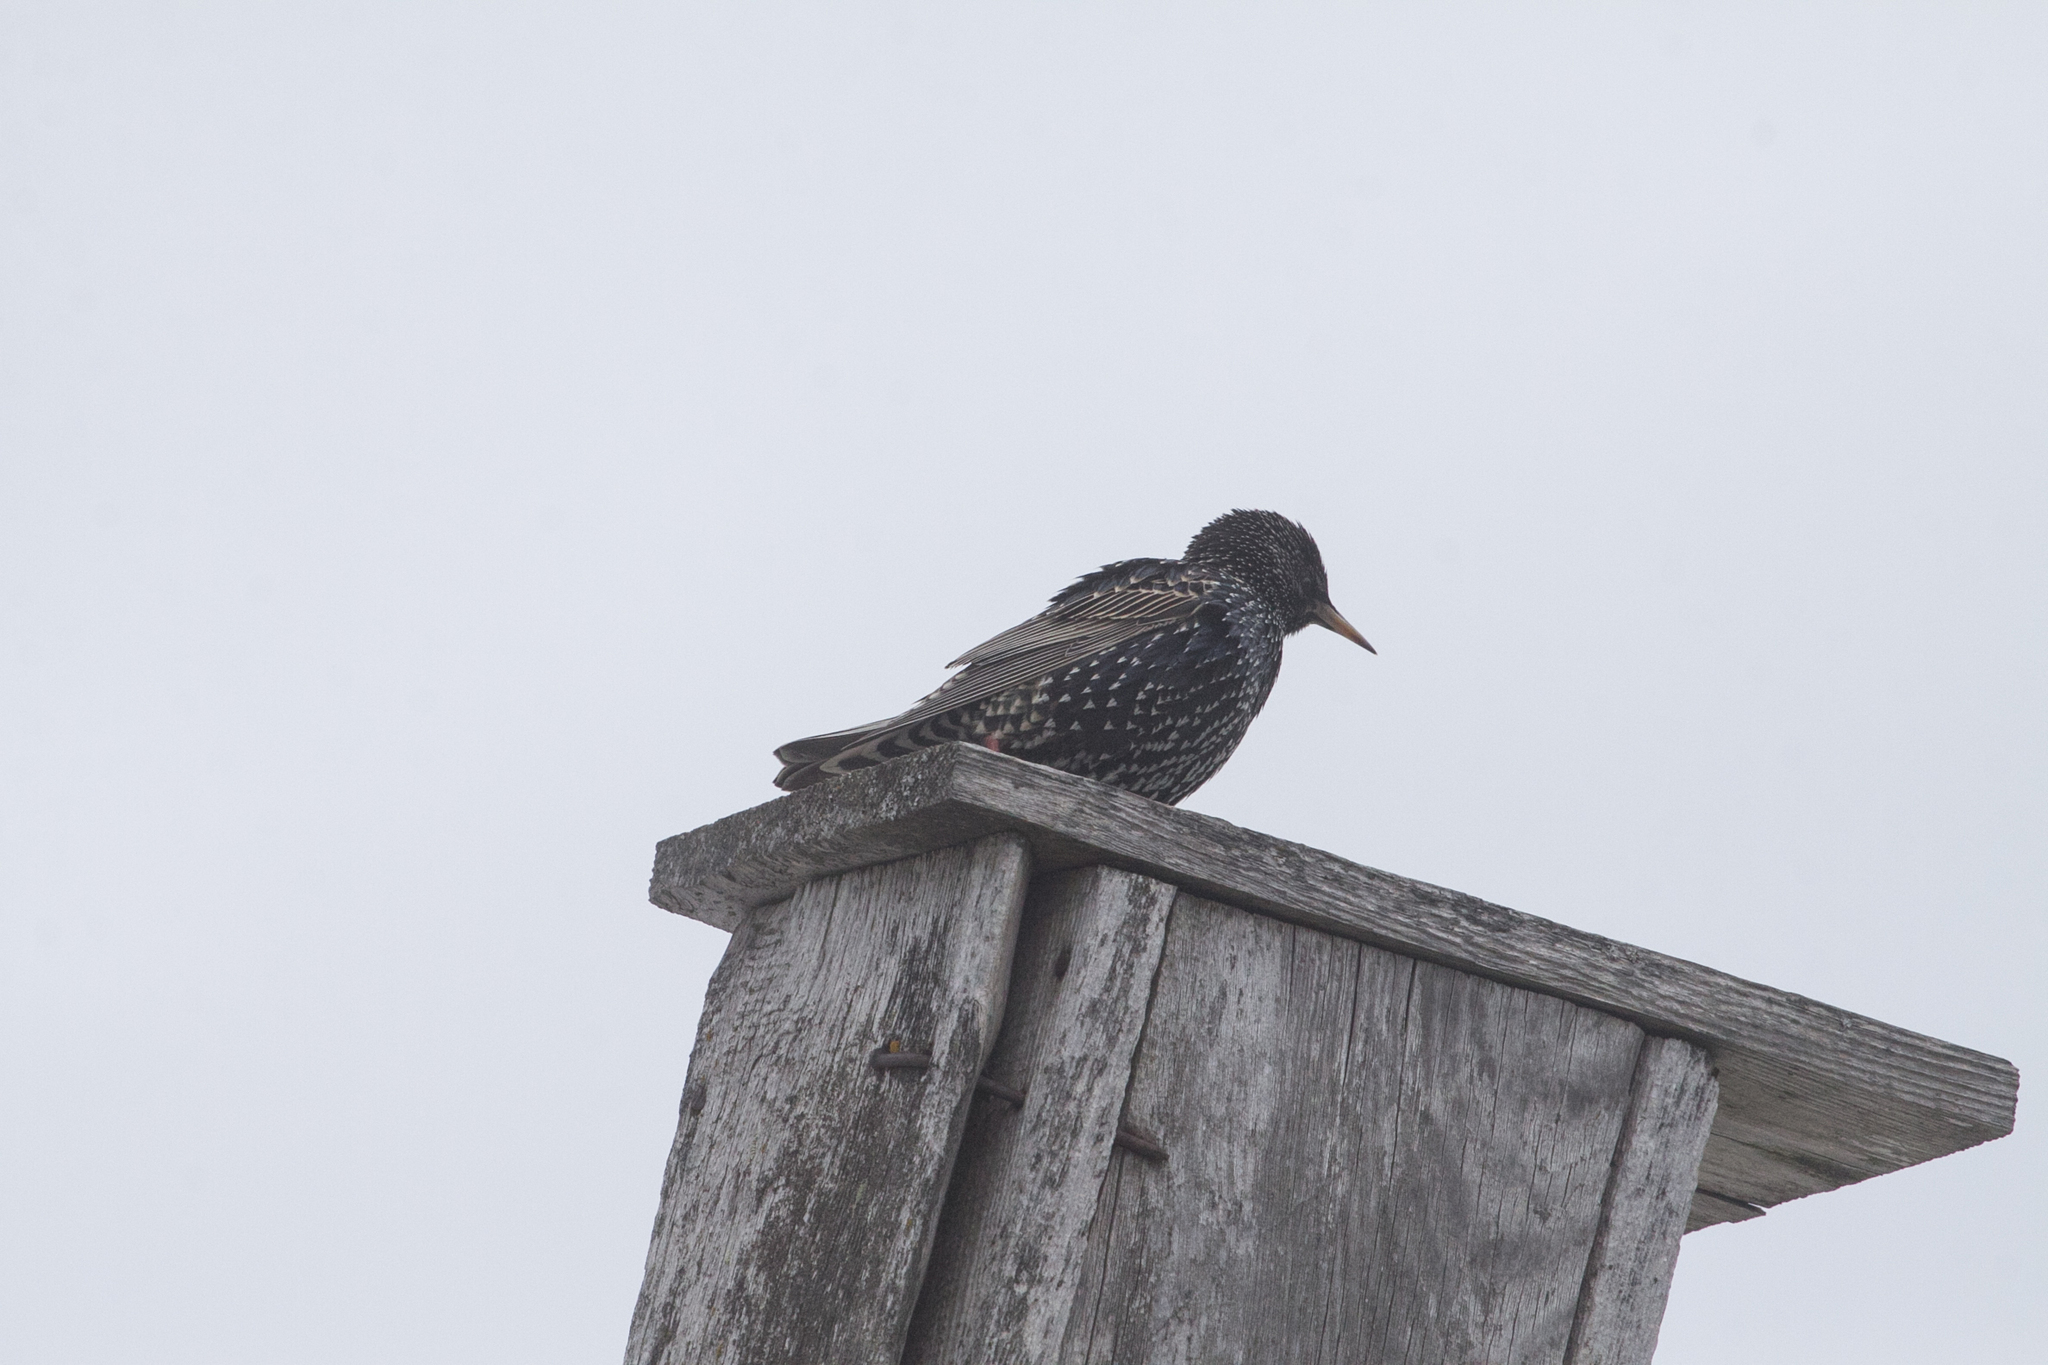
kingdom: Animalia
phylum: Chordata
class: Aves
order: Passeriformes
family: Sturnidae
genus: Sturnus
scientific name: Sturnus vulgaris
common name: Common starling
